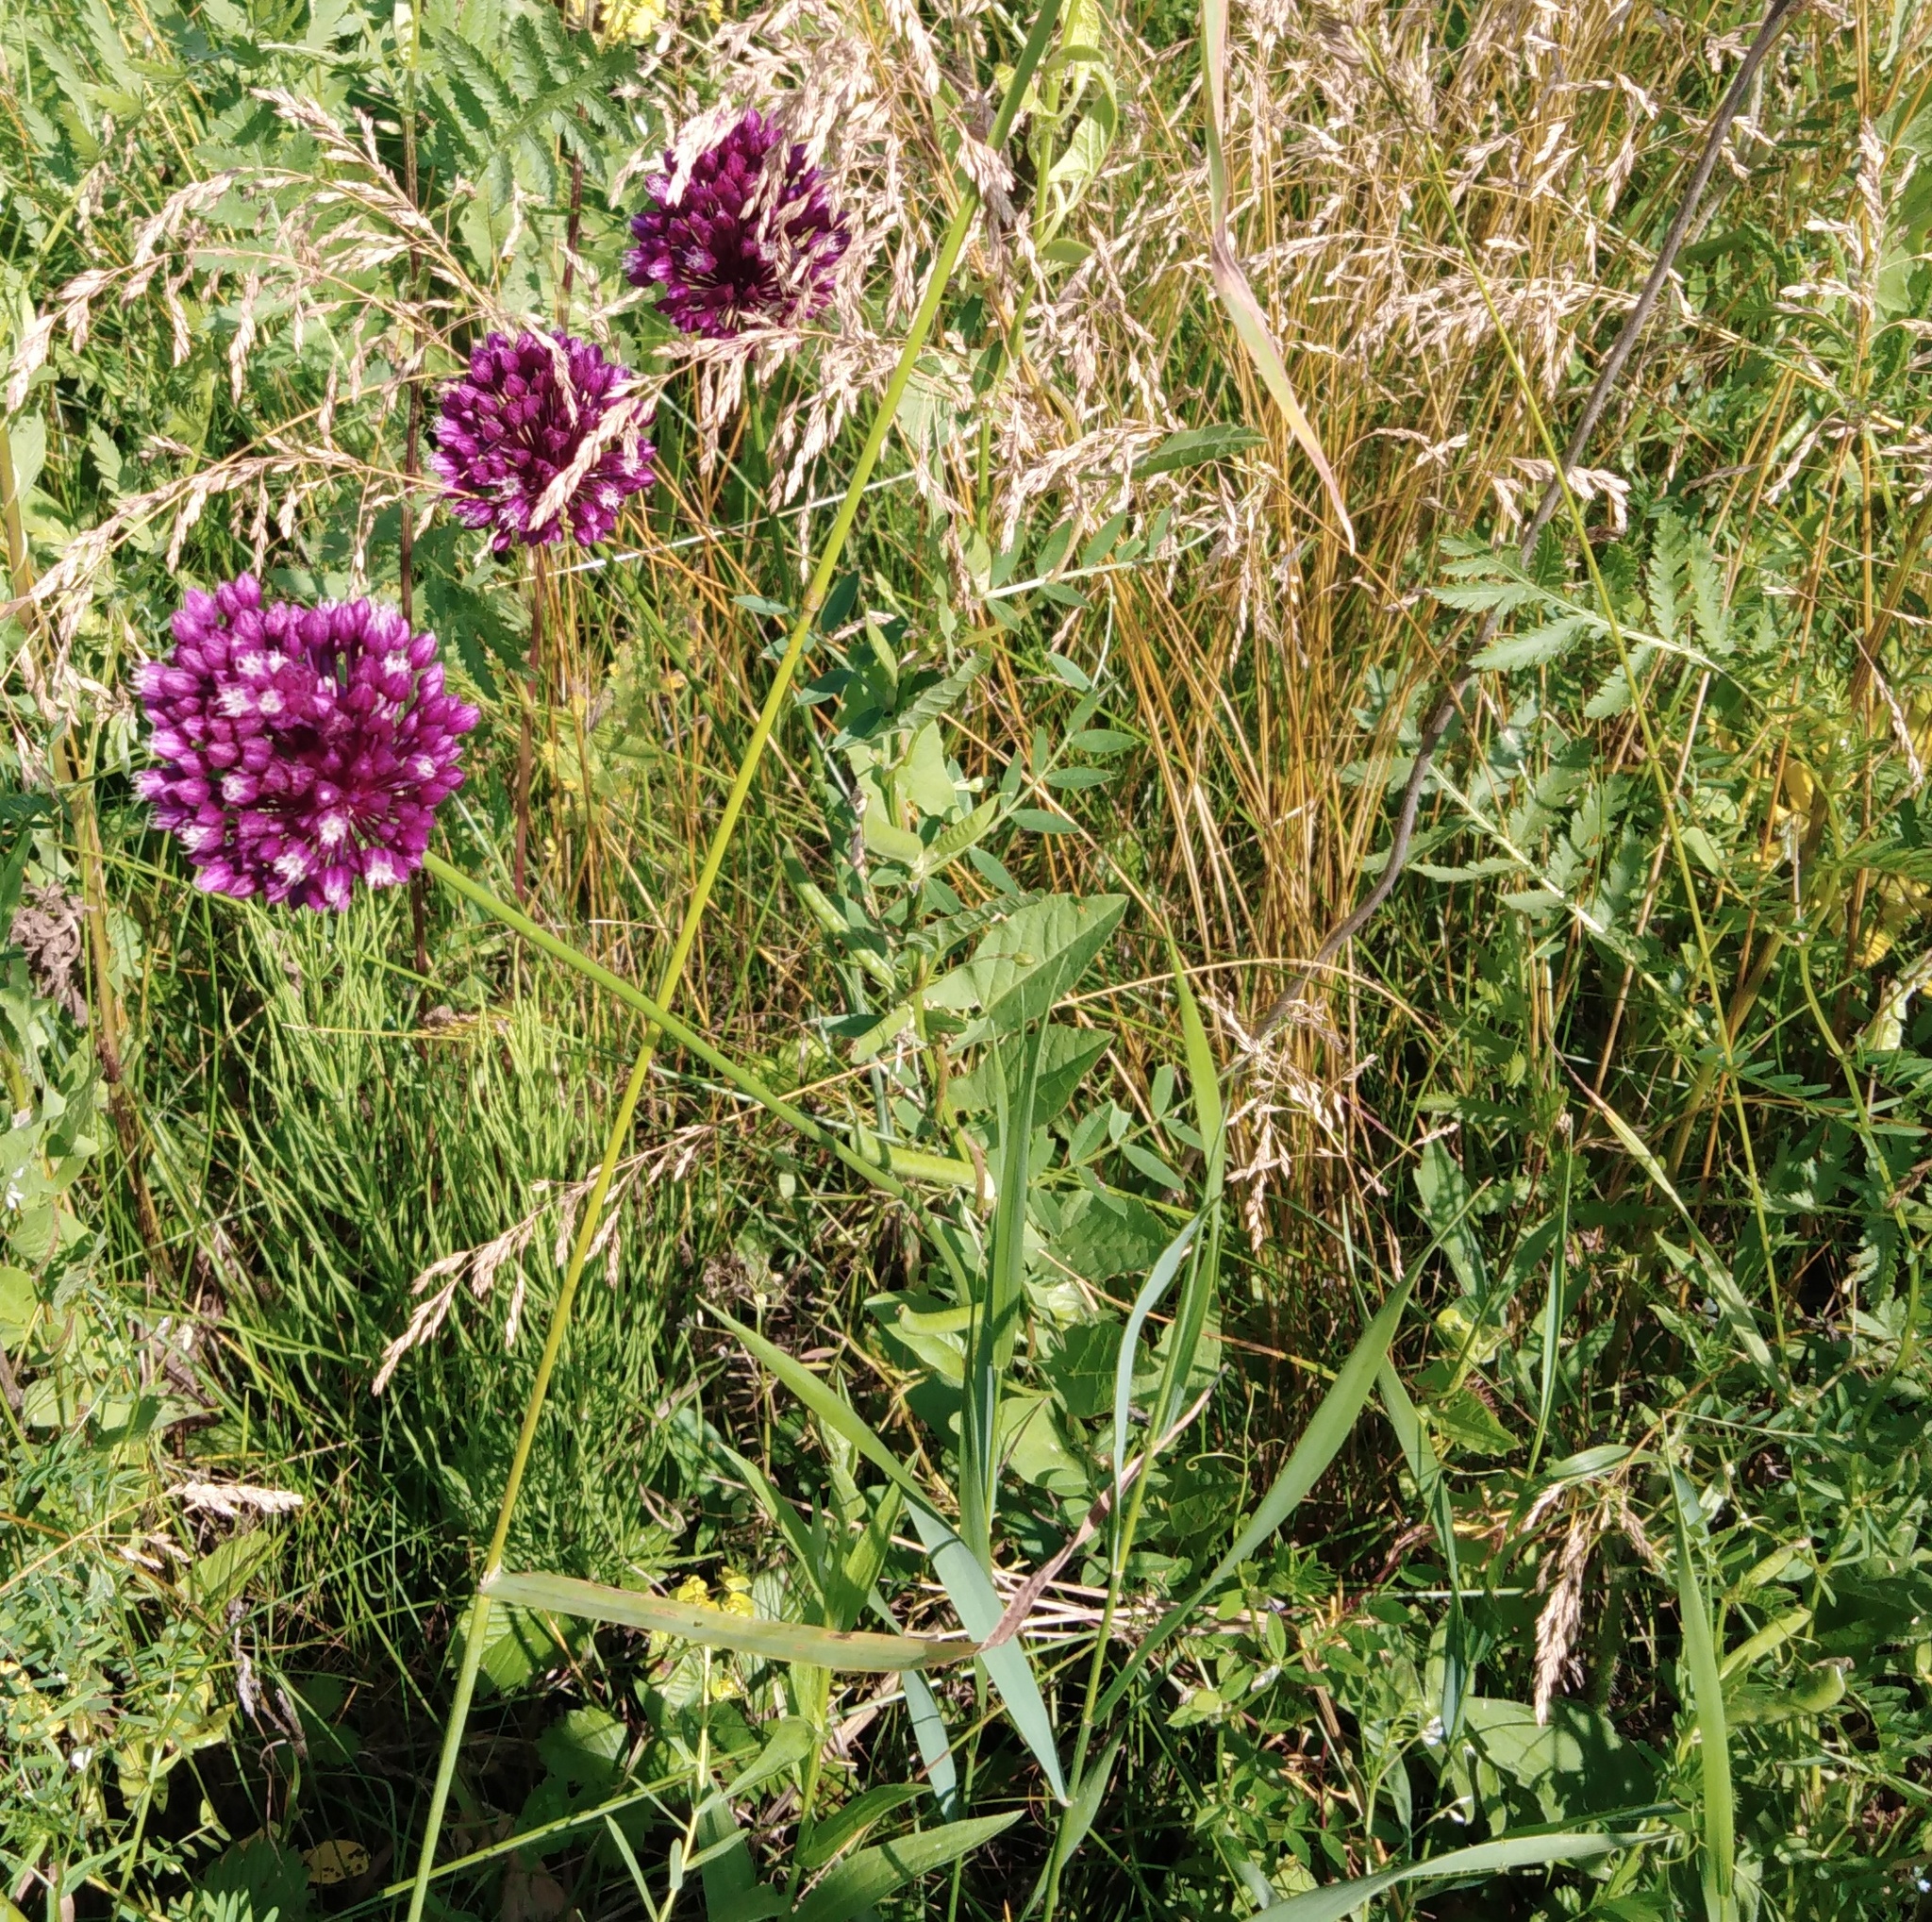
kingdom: Plantae
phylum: Tracheophyta
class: Liliopsida
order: Asparagales
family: Amaryllidaceae
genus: Allium
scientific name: Allium rotundum
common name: Sand leek
